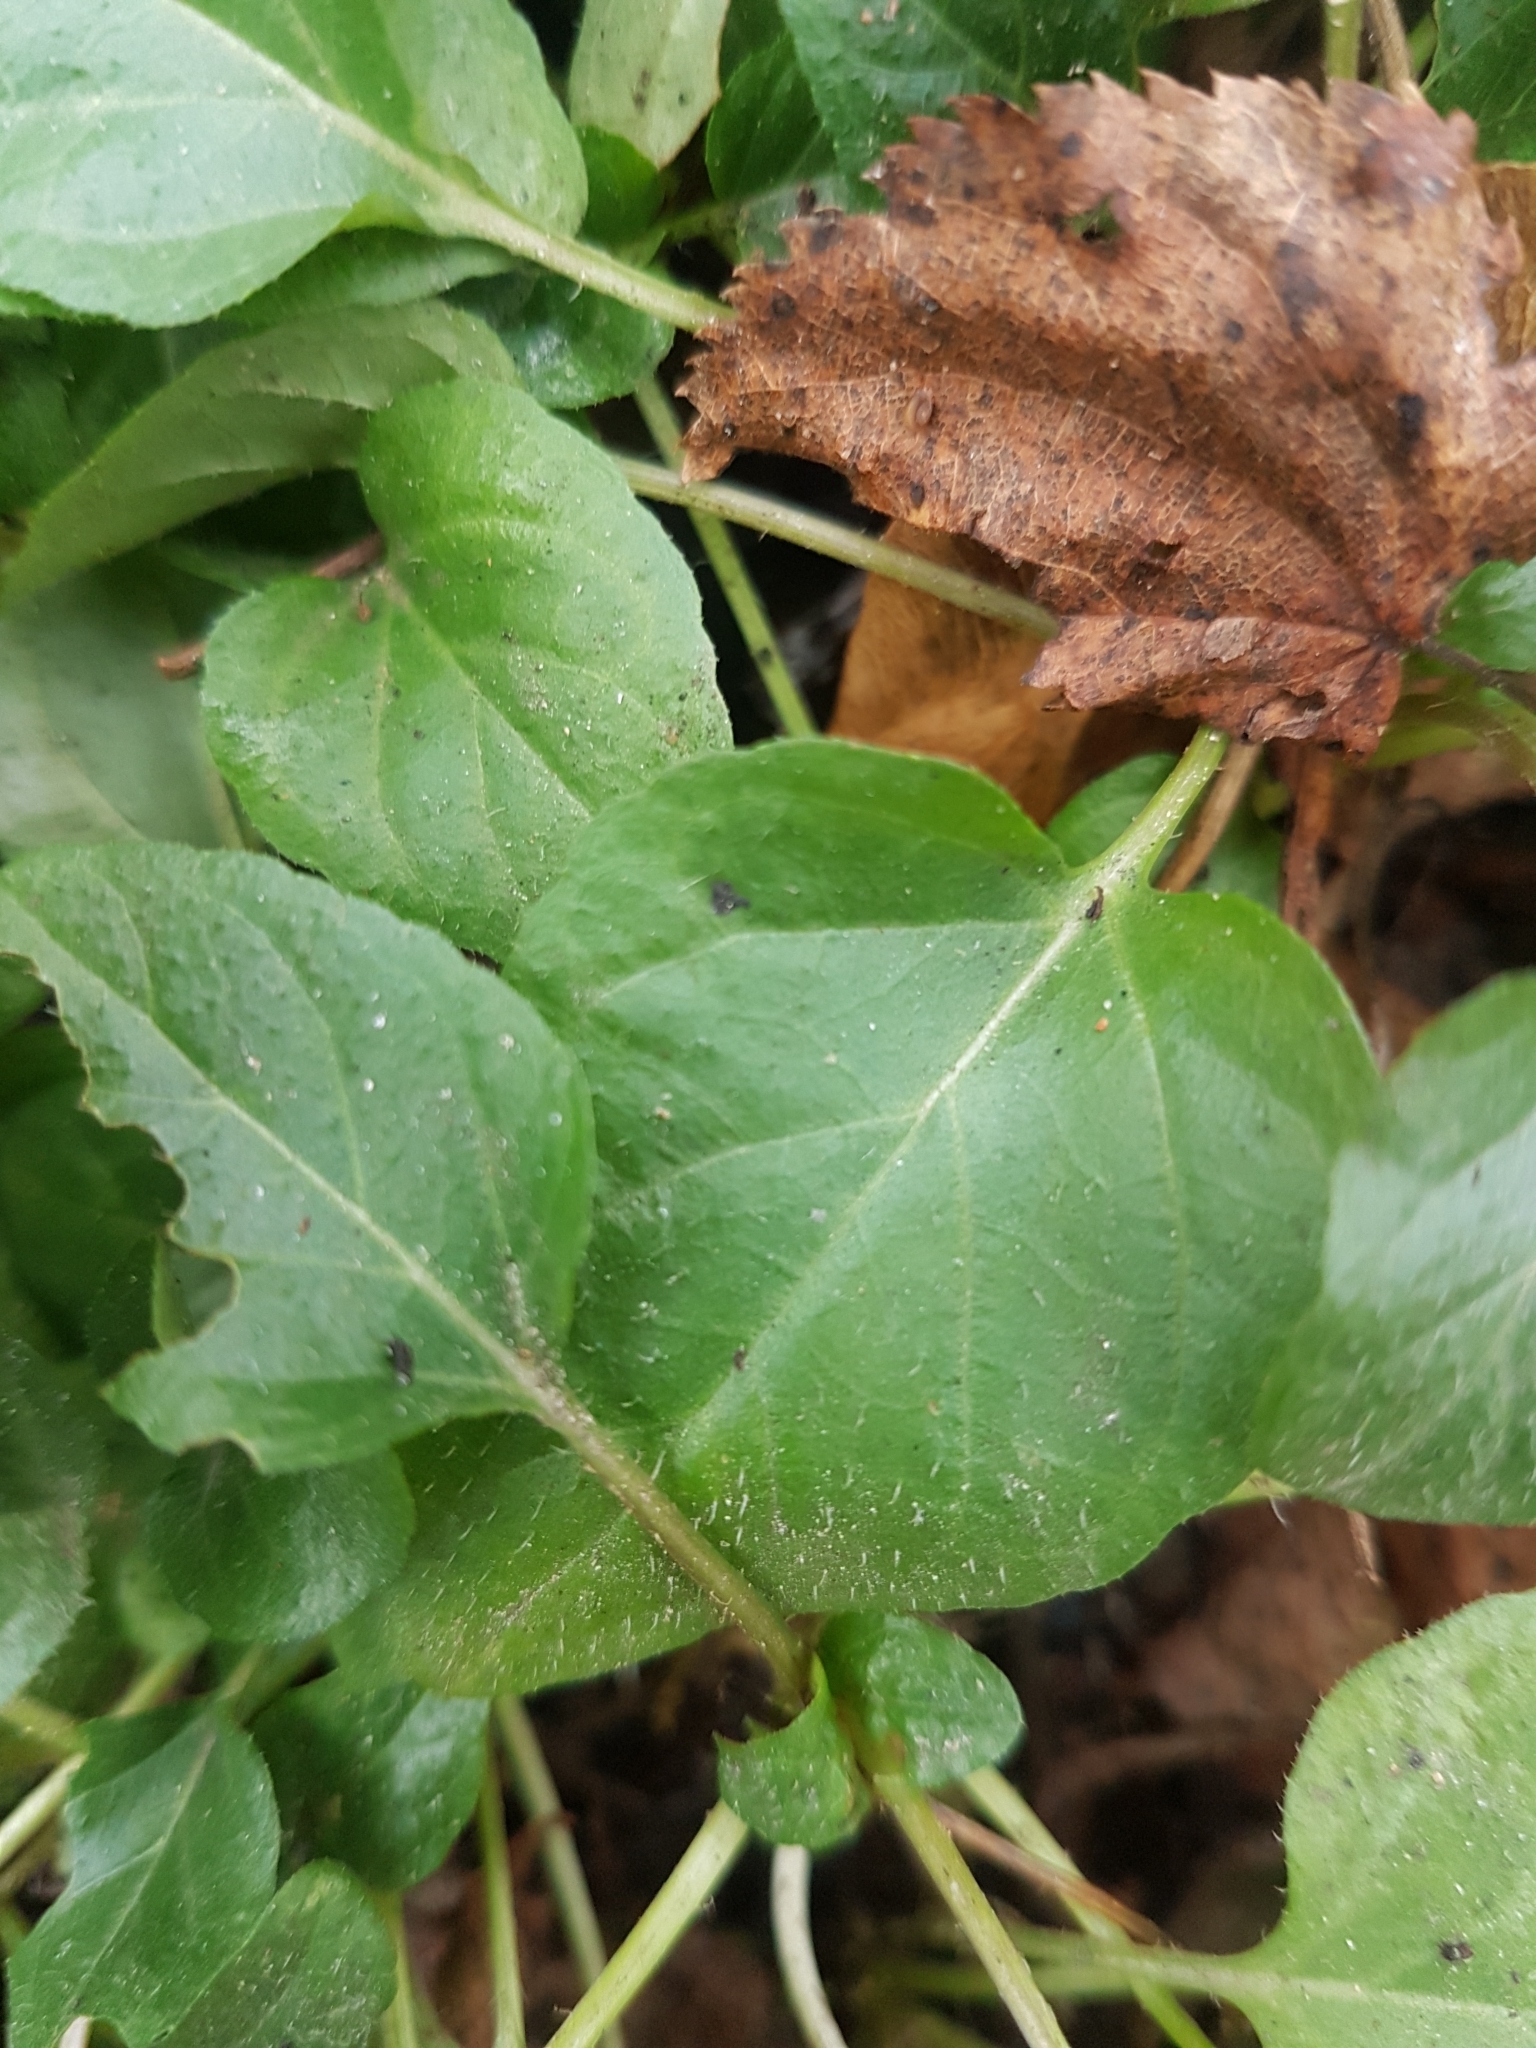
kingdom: Plantae
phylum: Tracheophyta
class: Magnoliopsida
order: Lamiales
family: Lamiaceae
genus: Prunella
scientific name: Prunella vulgaris
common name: Heal-all
